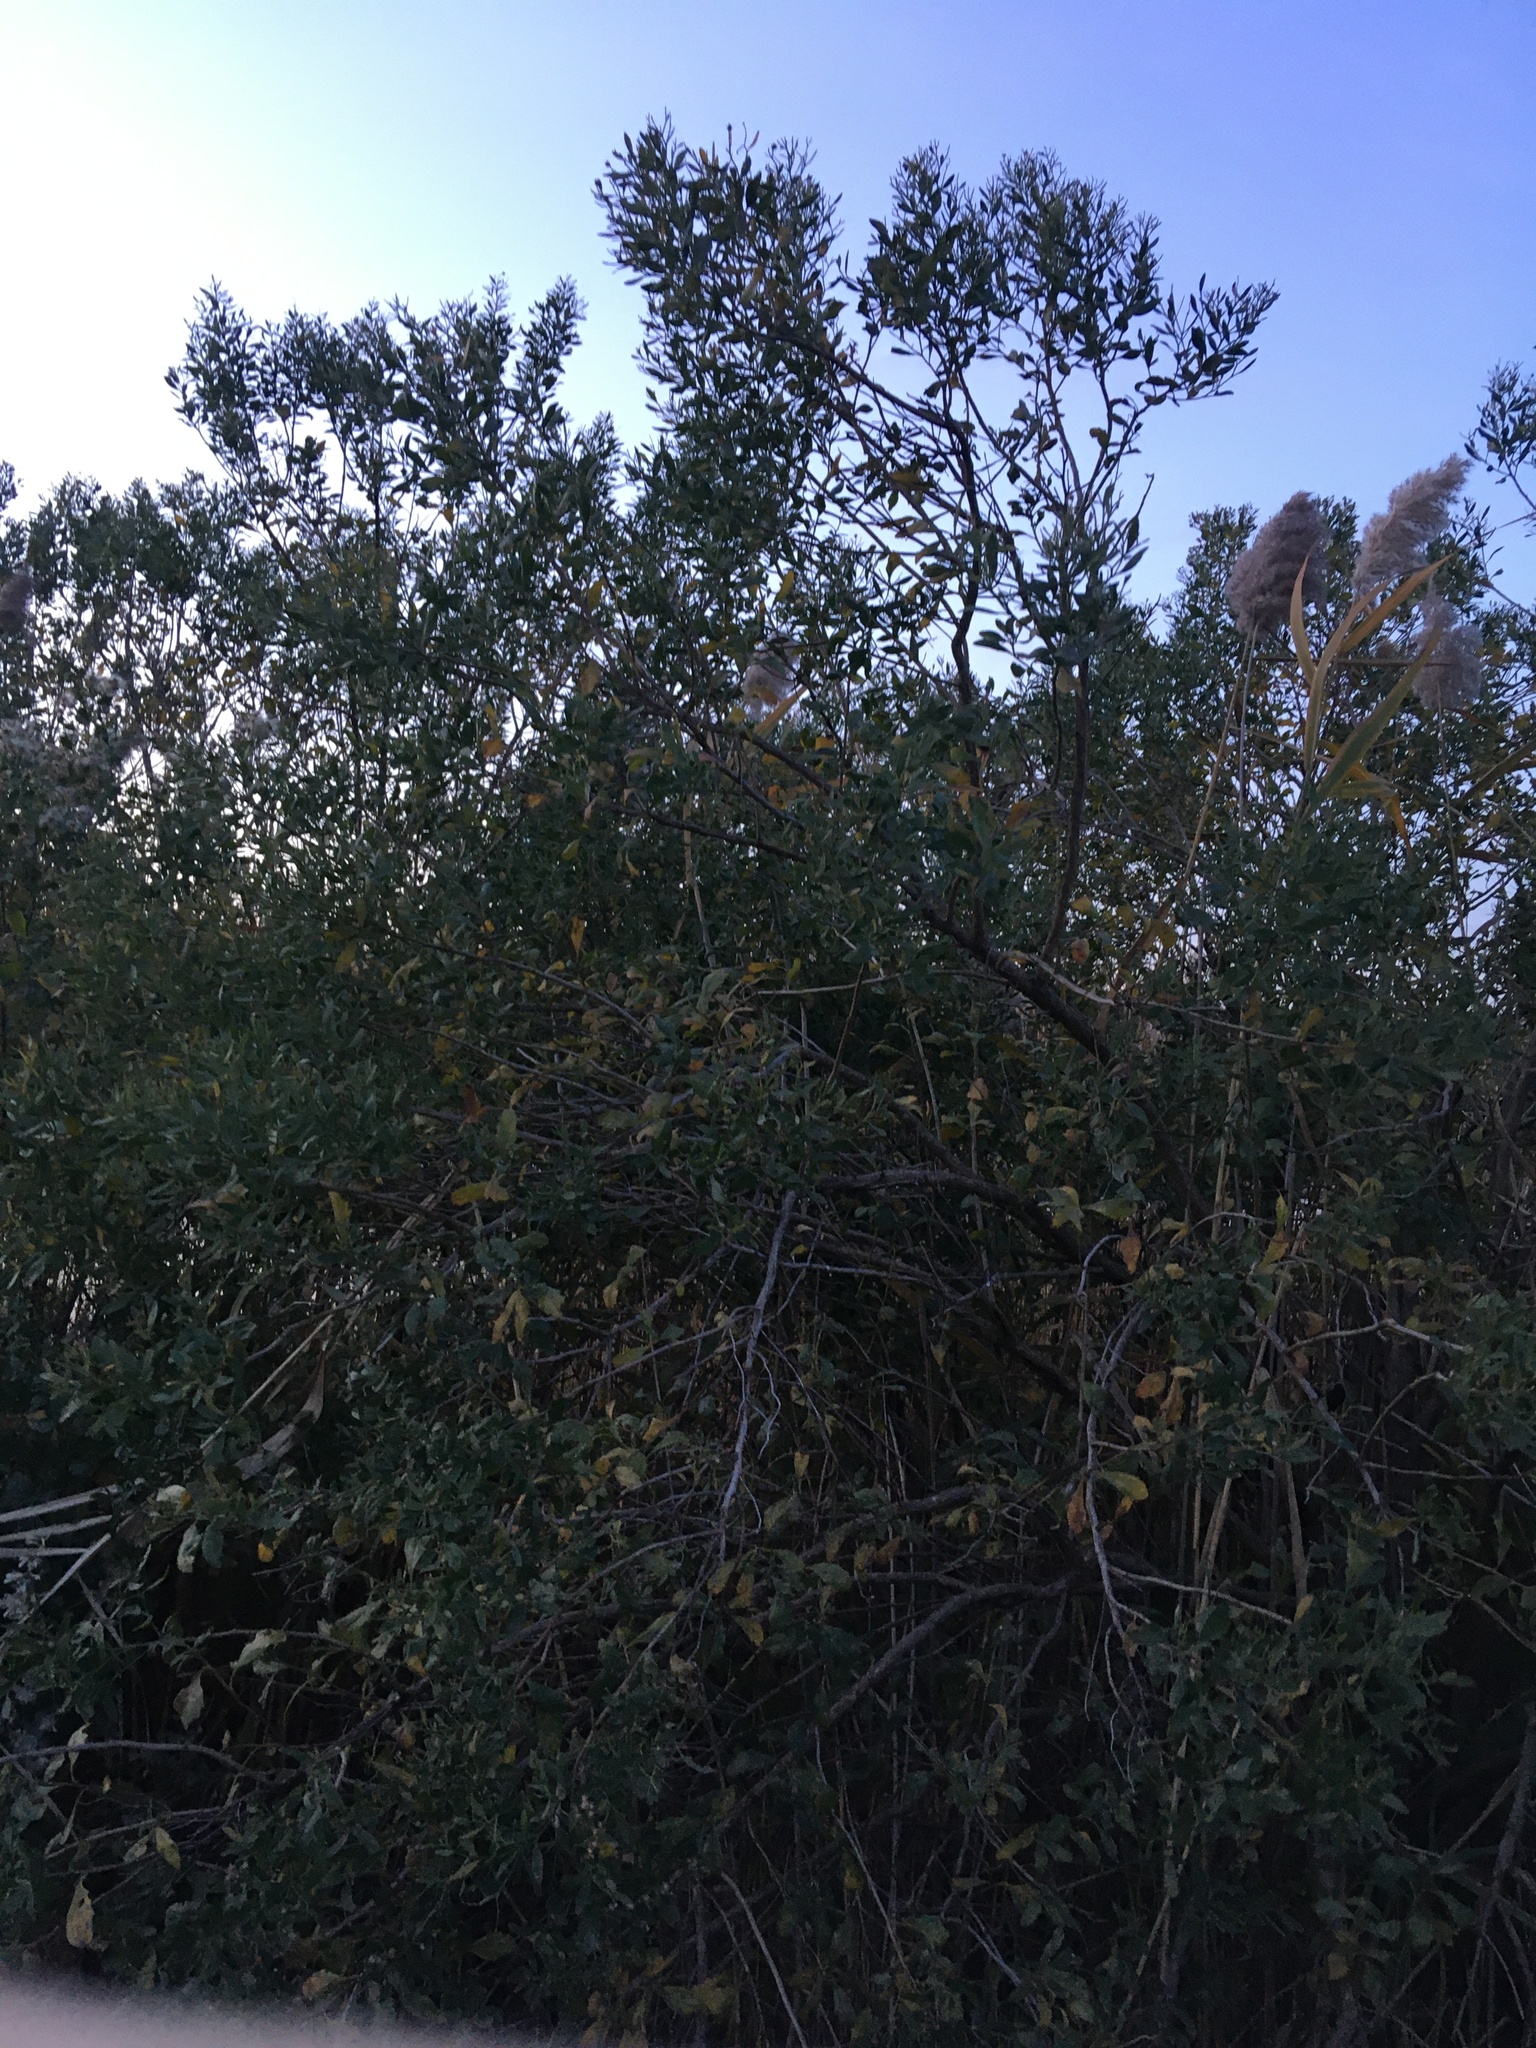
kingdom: Plantae
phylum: Tracheophyta
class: Magnoliopsida
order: Asterales
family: Asteraceae
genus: Baccharis
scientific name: Baccharis halimifolia
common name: Eastern baccharis
